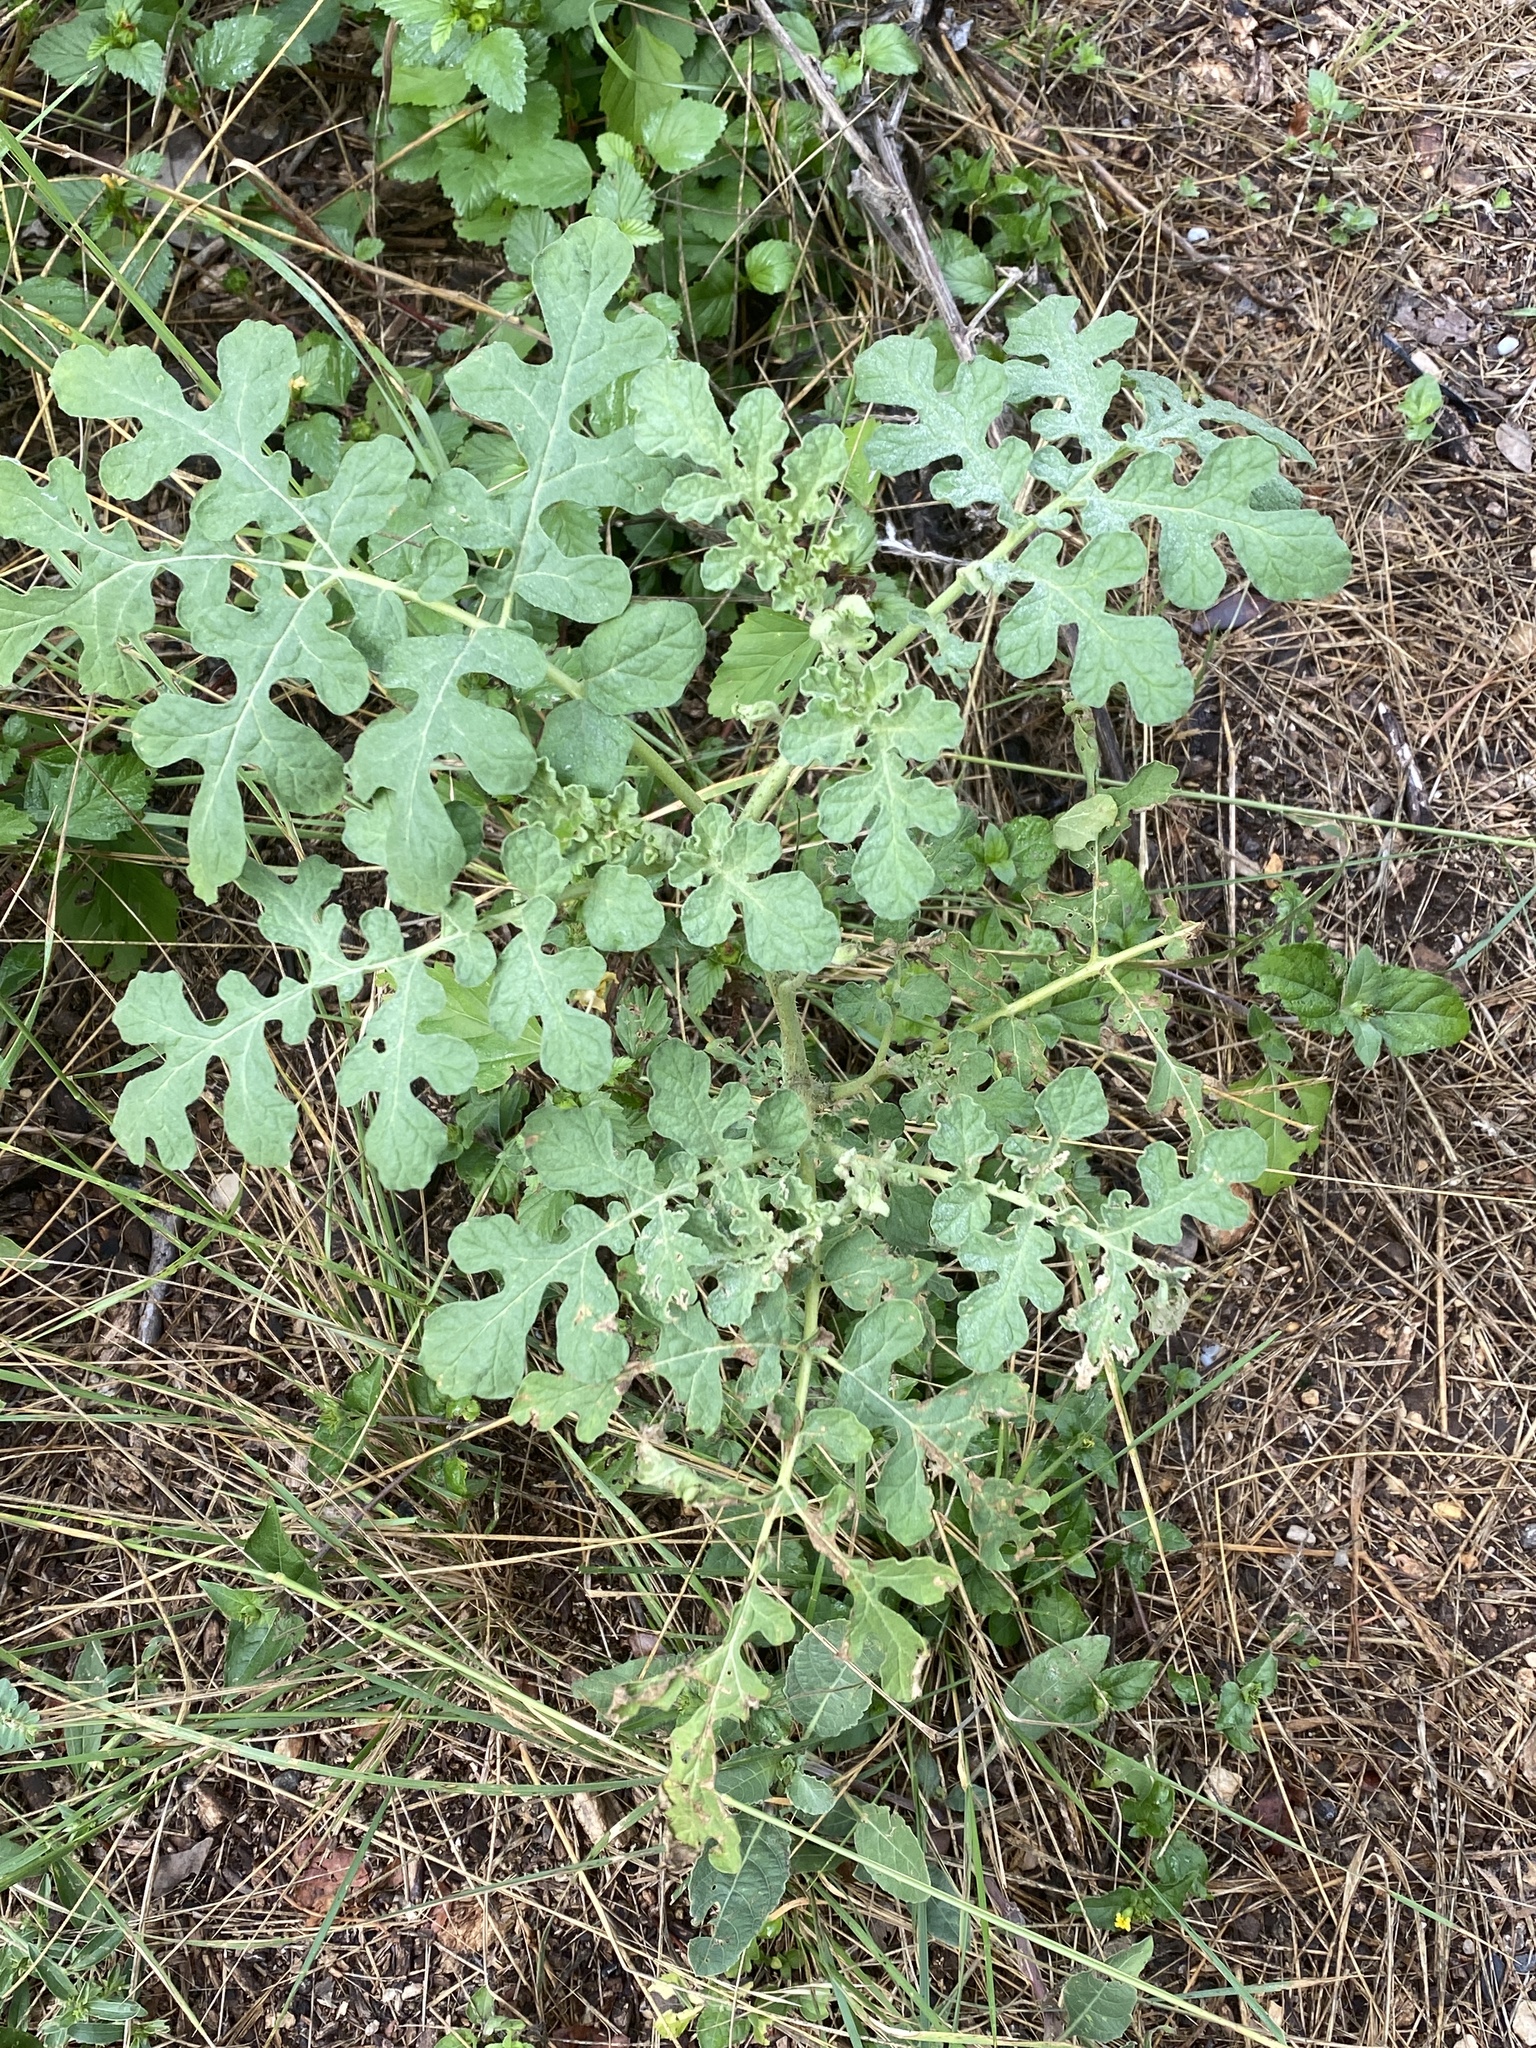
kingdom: Plantae
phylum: Tracheophyta
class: Magnoliopsida
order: Solanales
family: Solanaceae
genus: Solanum
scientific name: Solanum angustifolium
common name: Buffalobur nightshade
